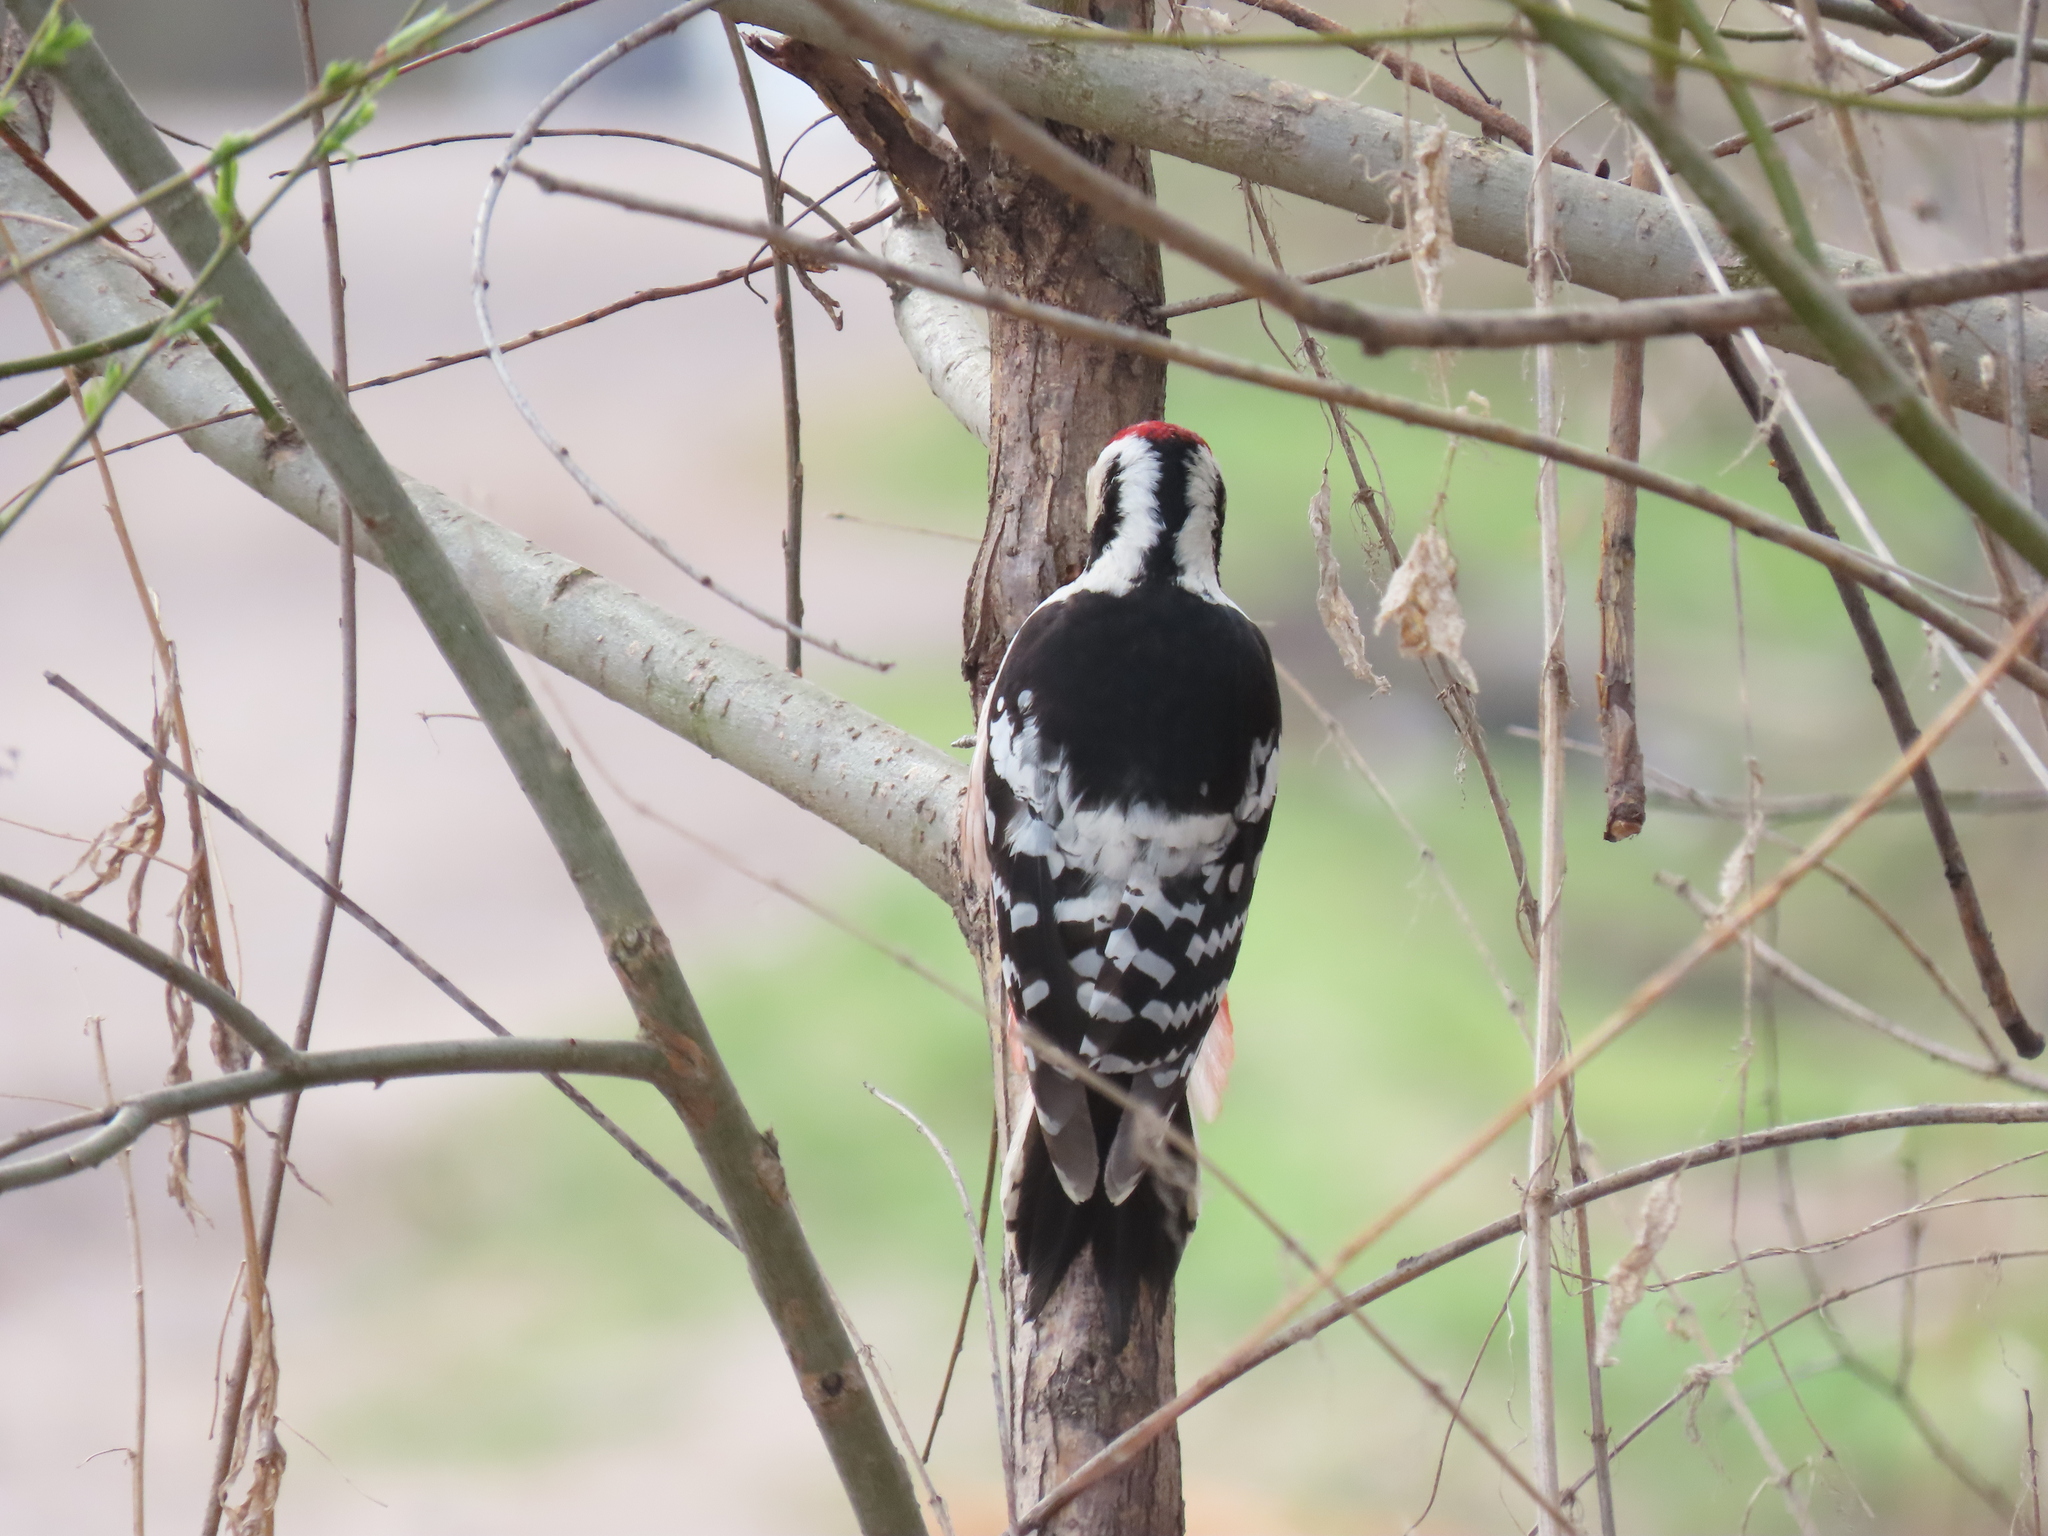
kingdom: Animalia
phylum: Chordata
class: Aves
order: Piciformes
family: Picidae
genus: Dendrocopos
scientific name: Dendrocopos leucotos
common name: White-backed woodpecker
